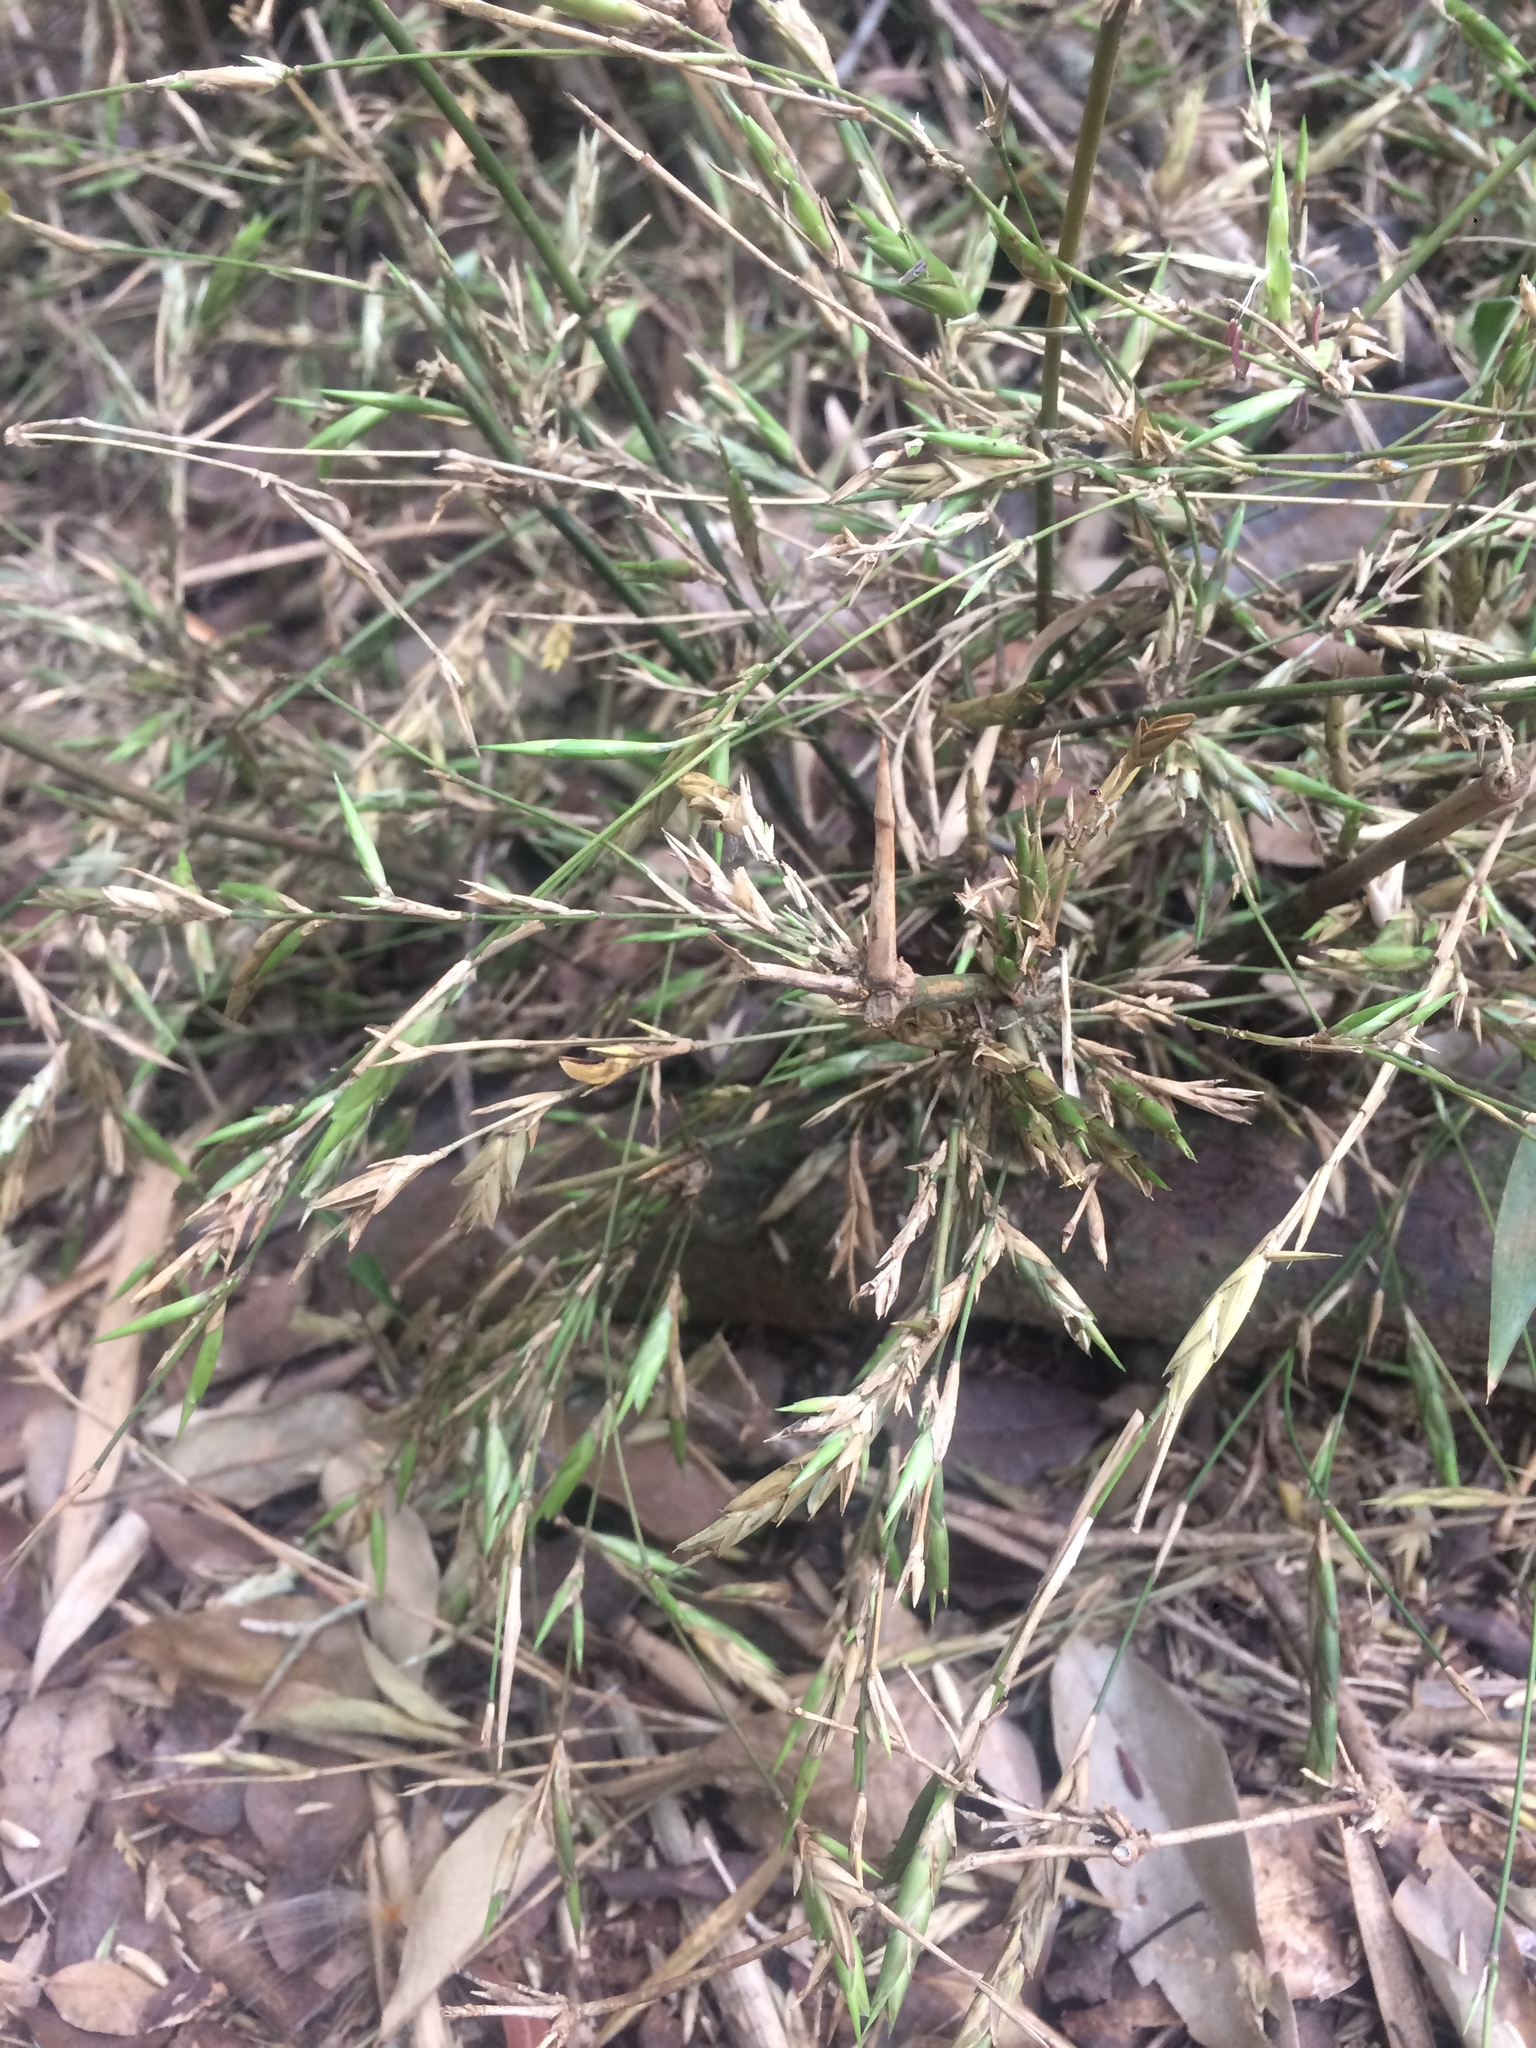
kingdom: Plantae
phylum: Tracheophyta
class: Liliopsida
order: Poales
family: Poaceae
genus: Guadua
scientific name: Guadua trinii
